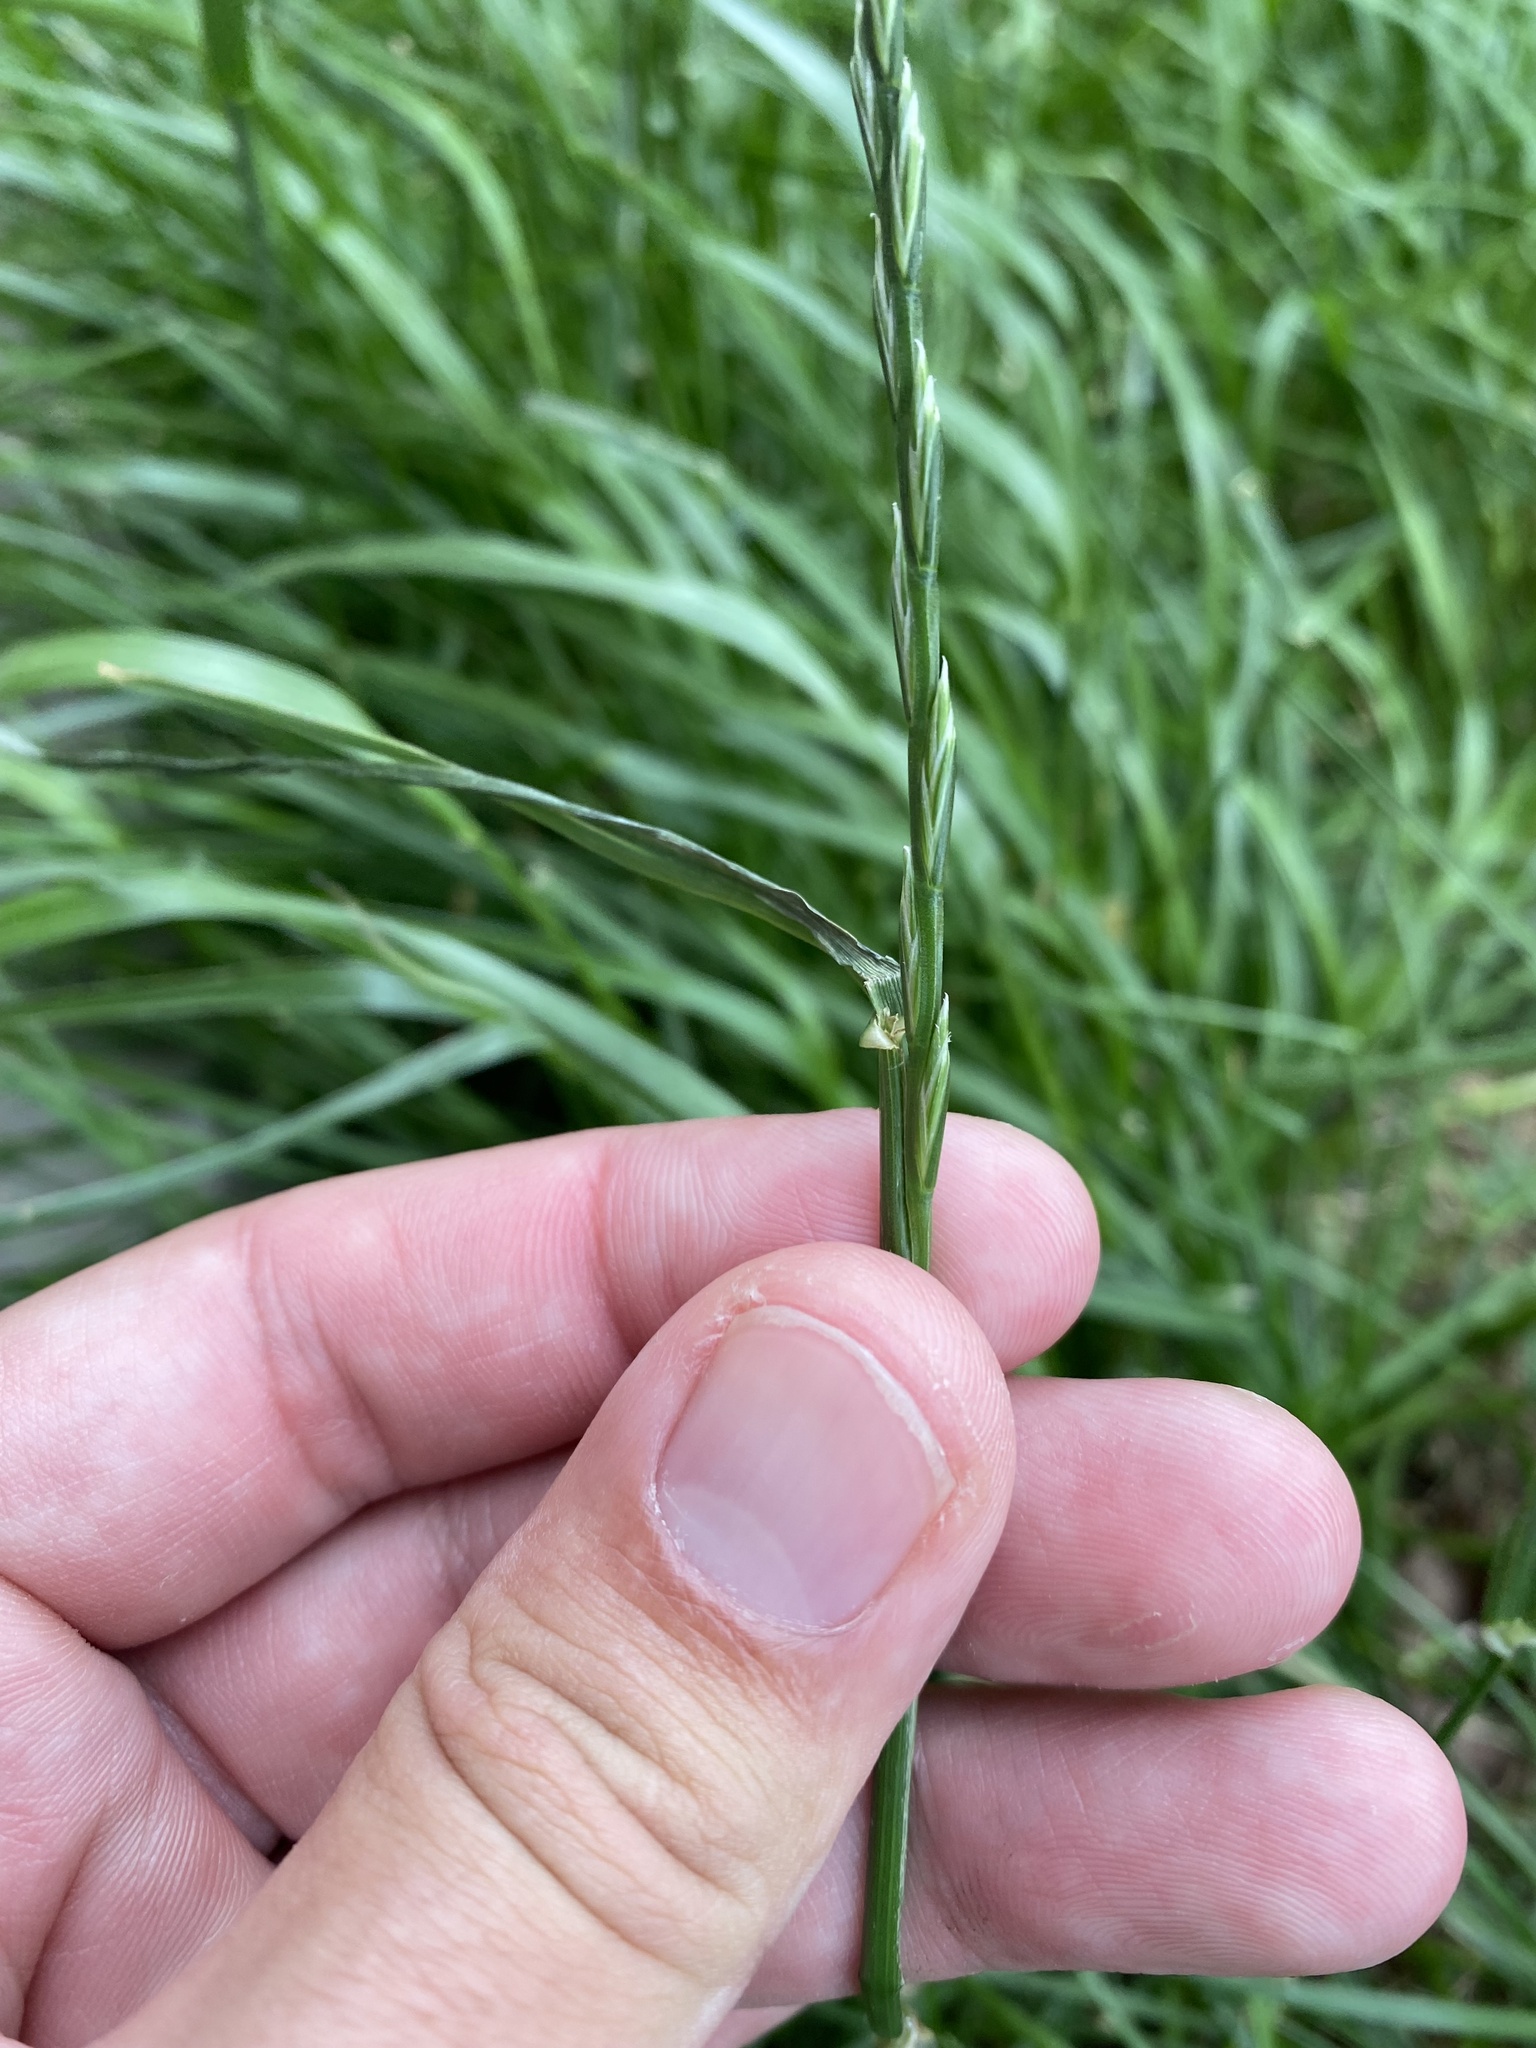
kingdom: Plantae
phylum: Tracheophyta
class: Liliopsida
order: Poales
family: Poaceae
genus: Elymus
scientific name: Elymus repens
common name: Quackgrass
